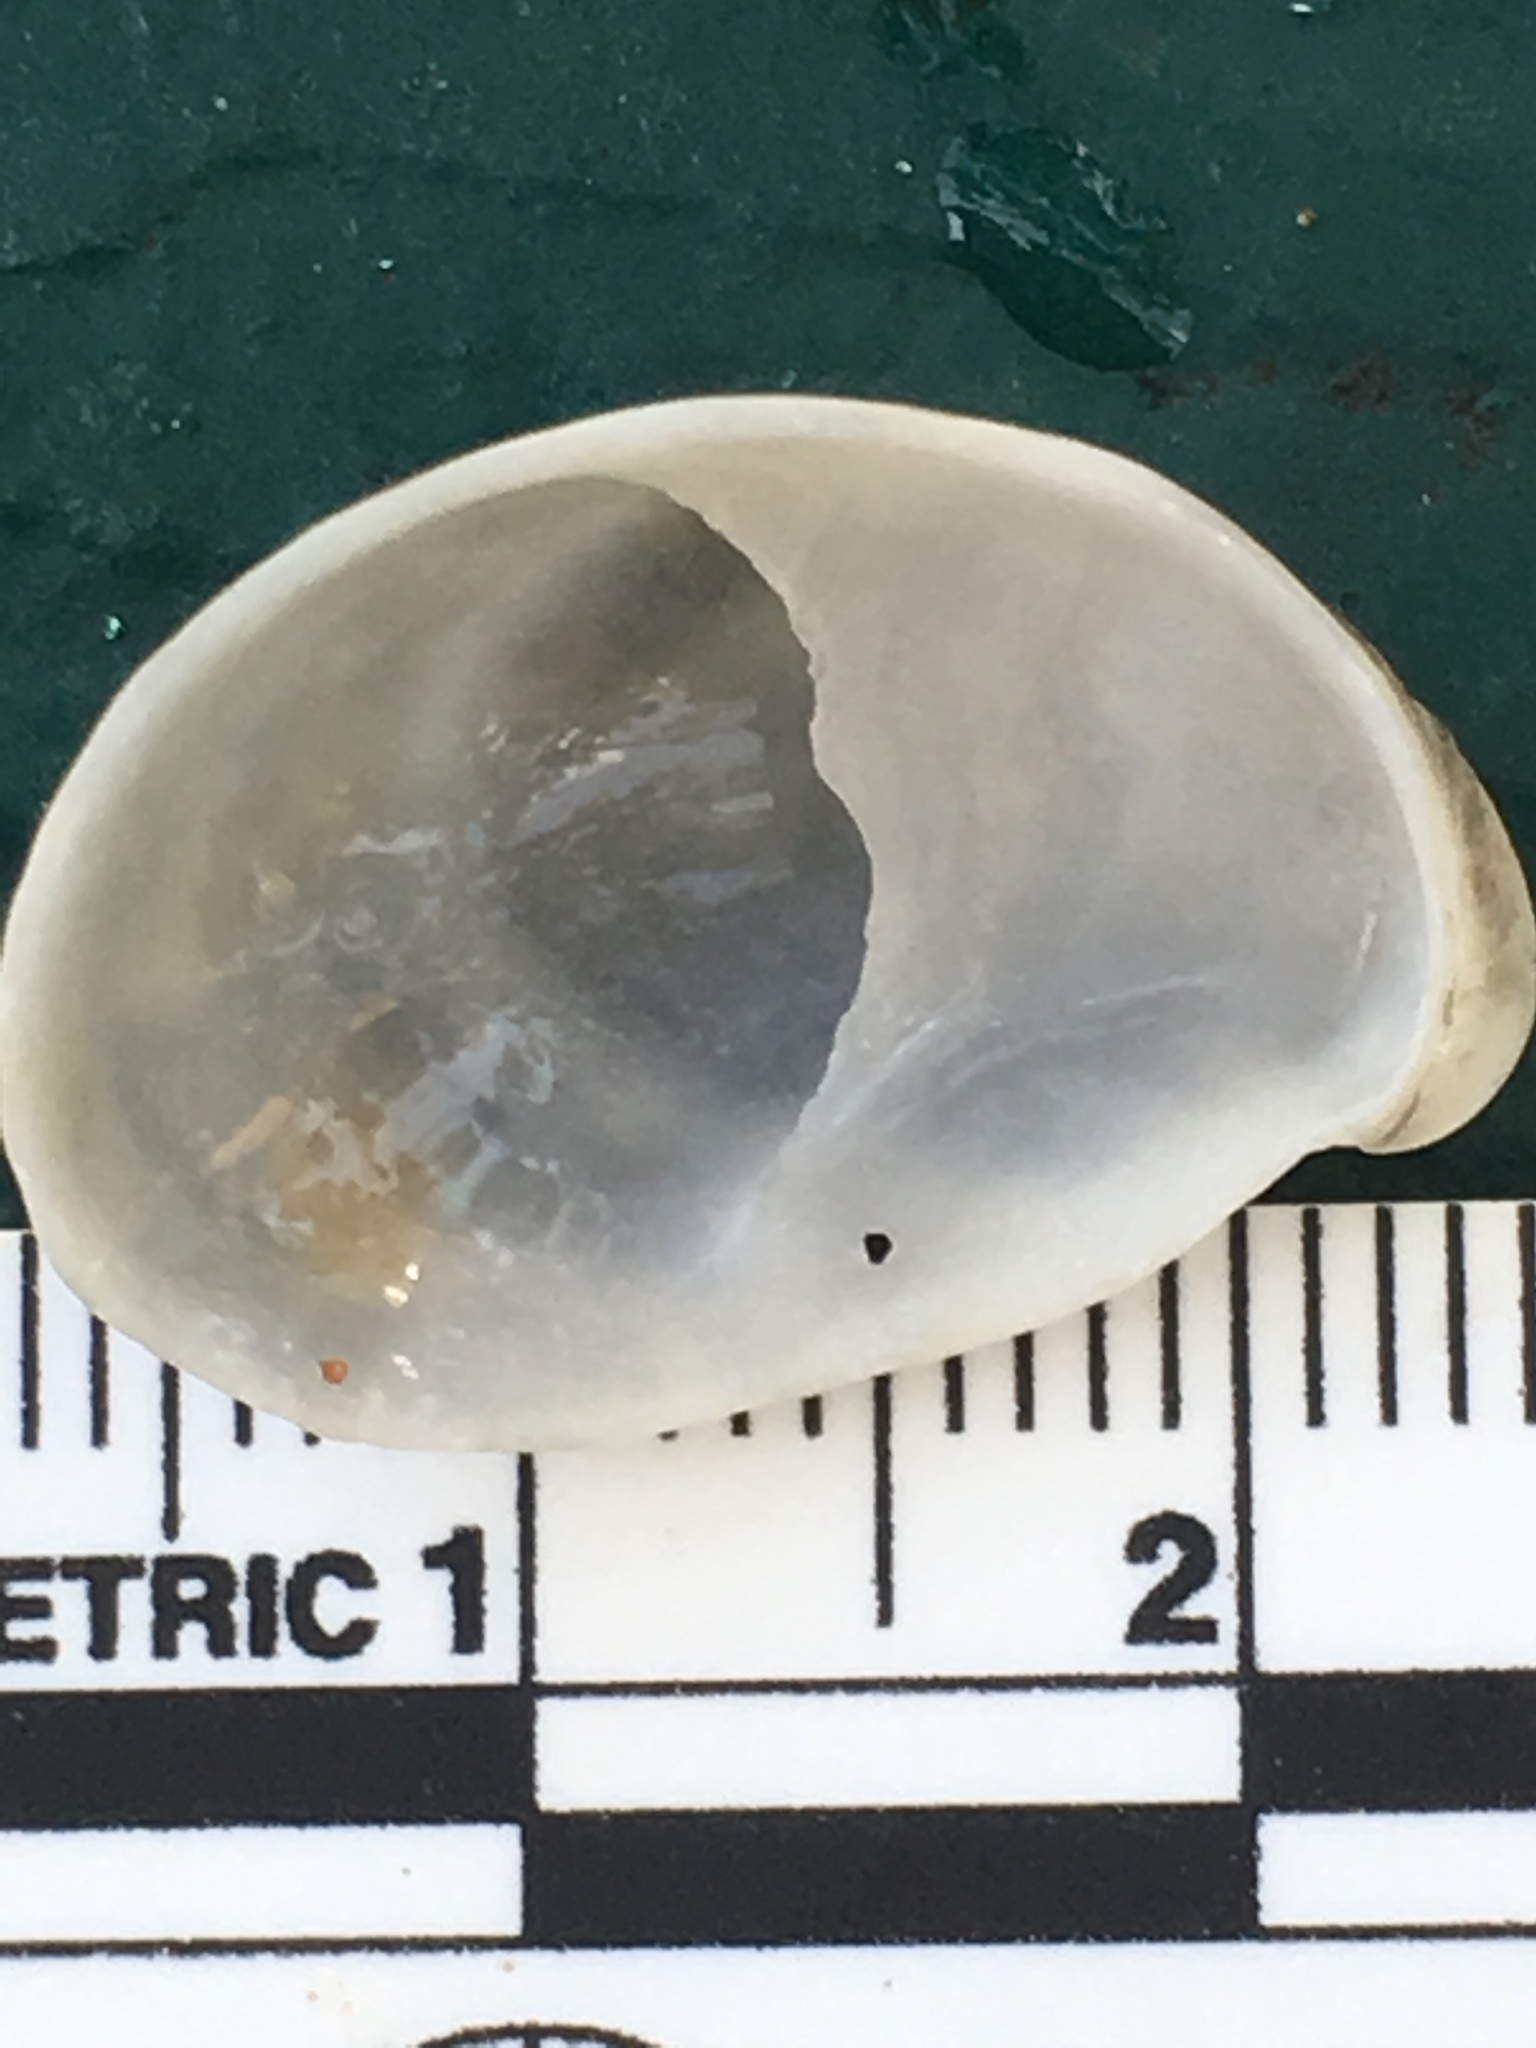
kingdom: Animalia
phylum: Mollusca
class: Gastropoda
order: Littorinimorpha
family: Calyptraeidae
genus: Crepidula
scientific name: Crepidula fornicata
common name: Slipper limpet
